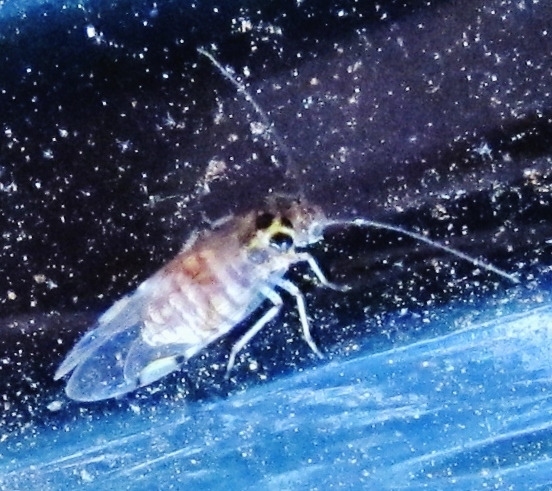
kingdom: Animalia
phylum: Arthropoda
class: Insecta
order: Psocodea
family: Dasydemellidae
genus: Teliapsocus
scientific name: Teliapsocus conterminus
